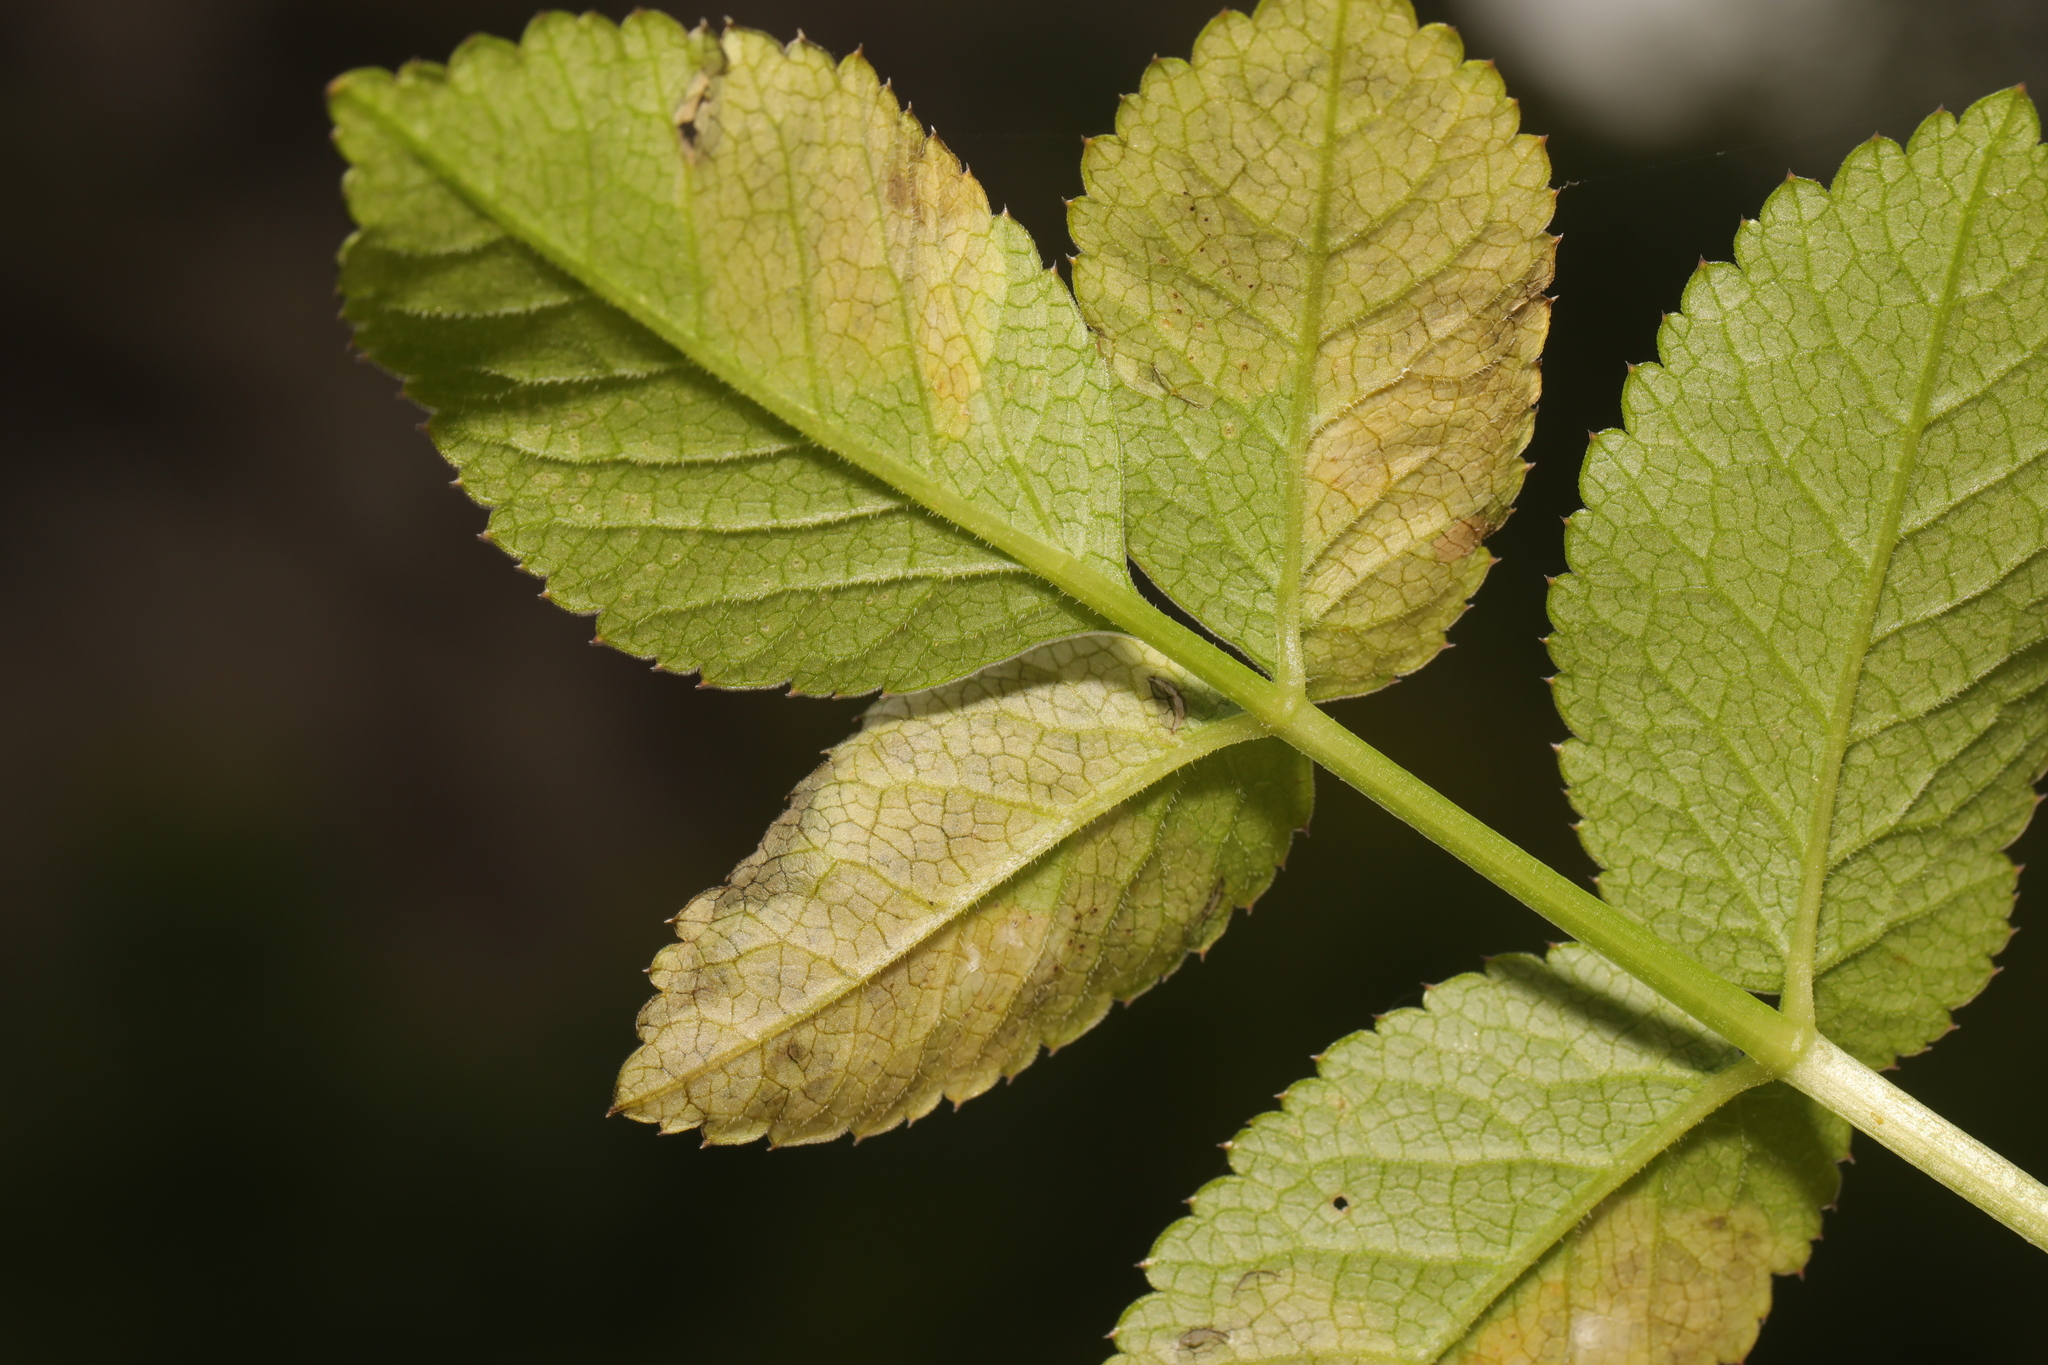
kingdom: Animalia
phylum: Arthropoda
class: Insecta
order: Diptera
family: Agromyzidae
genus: Phytomyza
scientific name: Phytomyza angelicae
